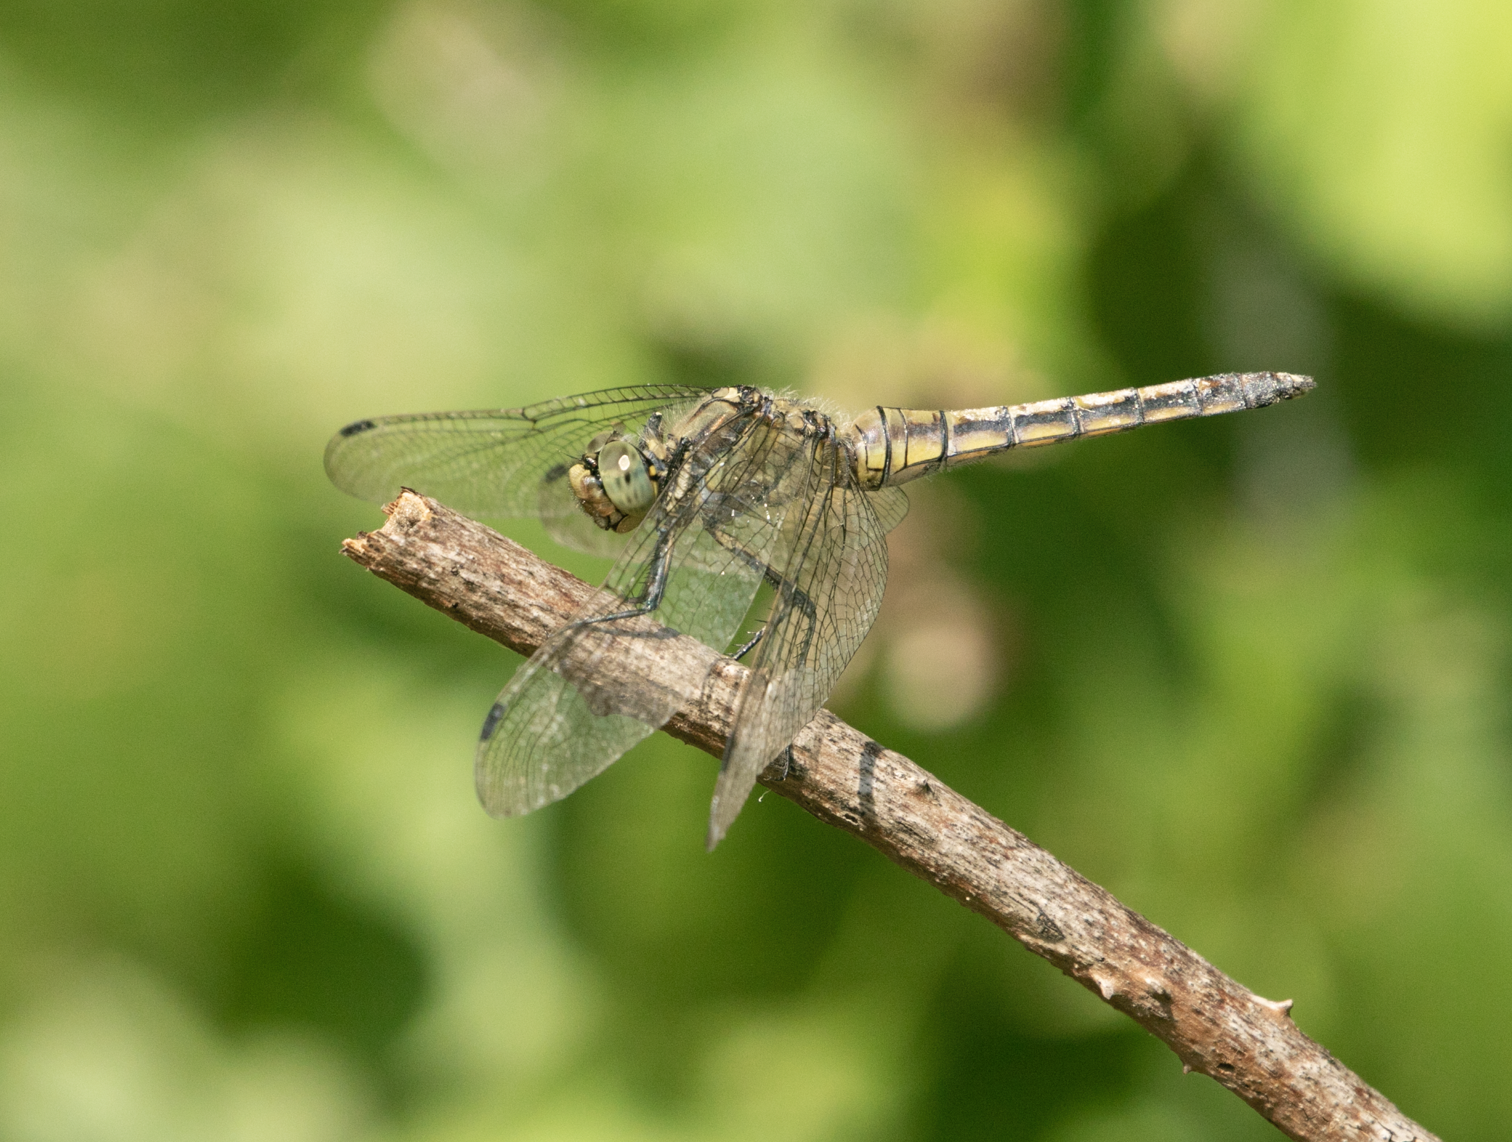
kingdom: Animalia
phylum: Arthropoda
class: Insecta
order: Odonata
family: Libellulidae
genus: Orthetrum
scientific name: Orthetrum cancellatum
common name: Black-tailed skimmer
